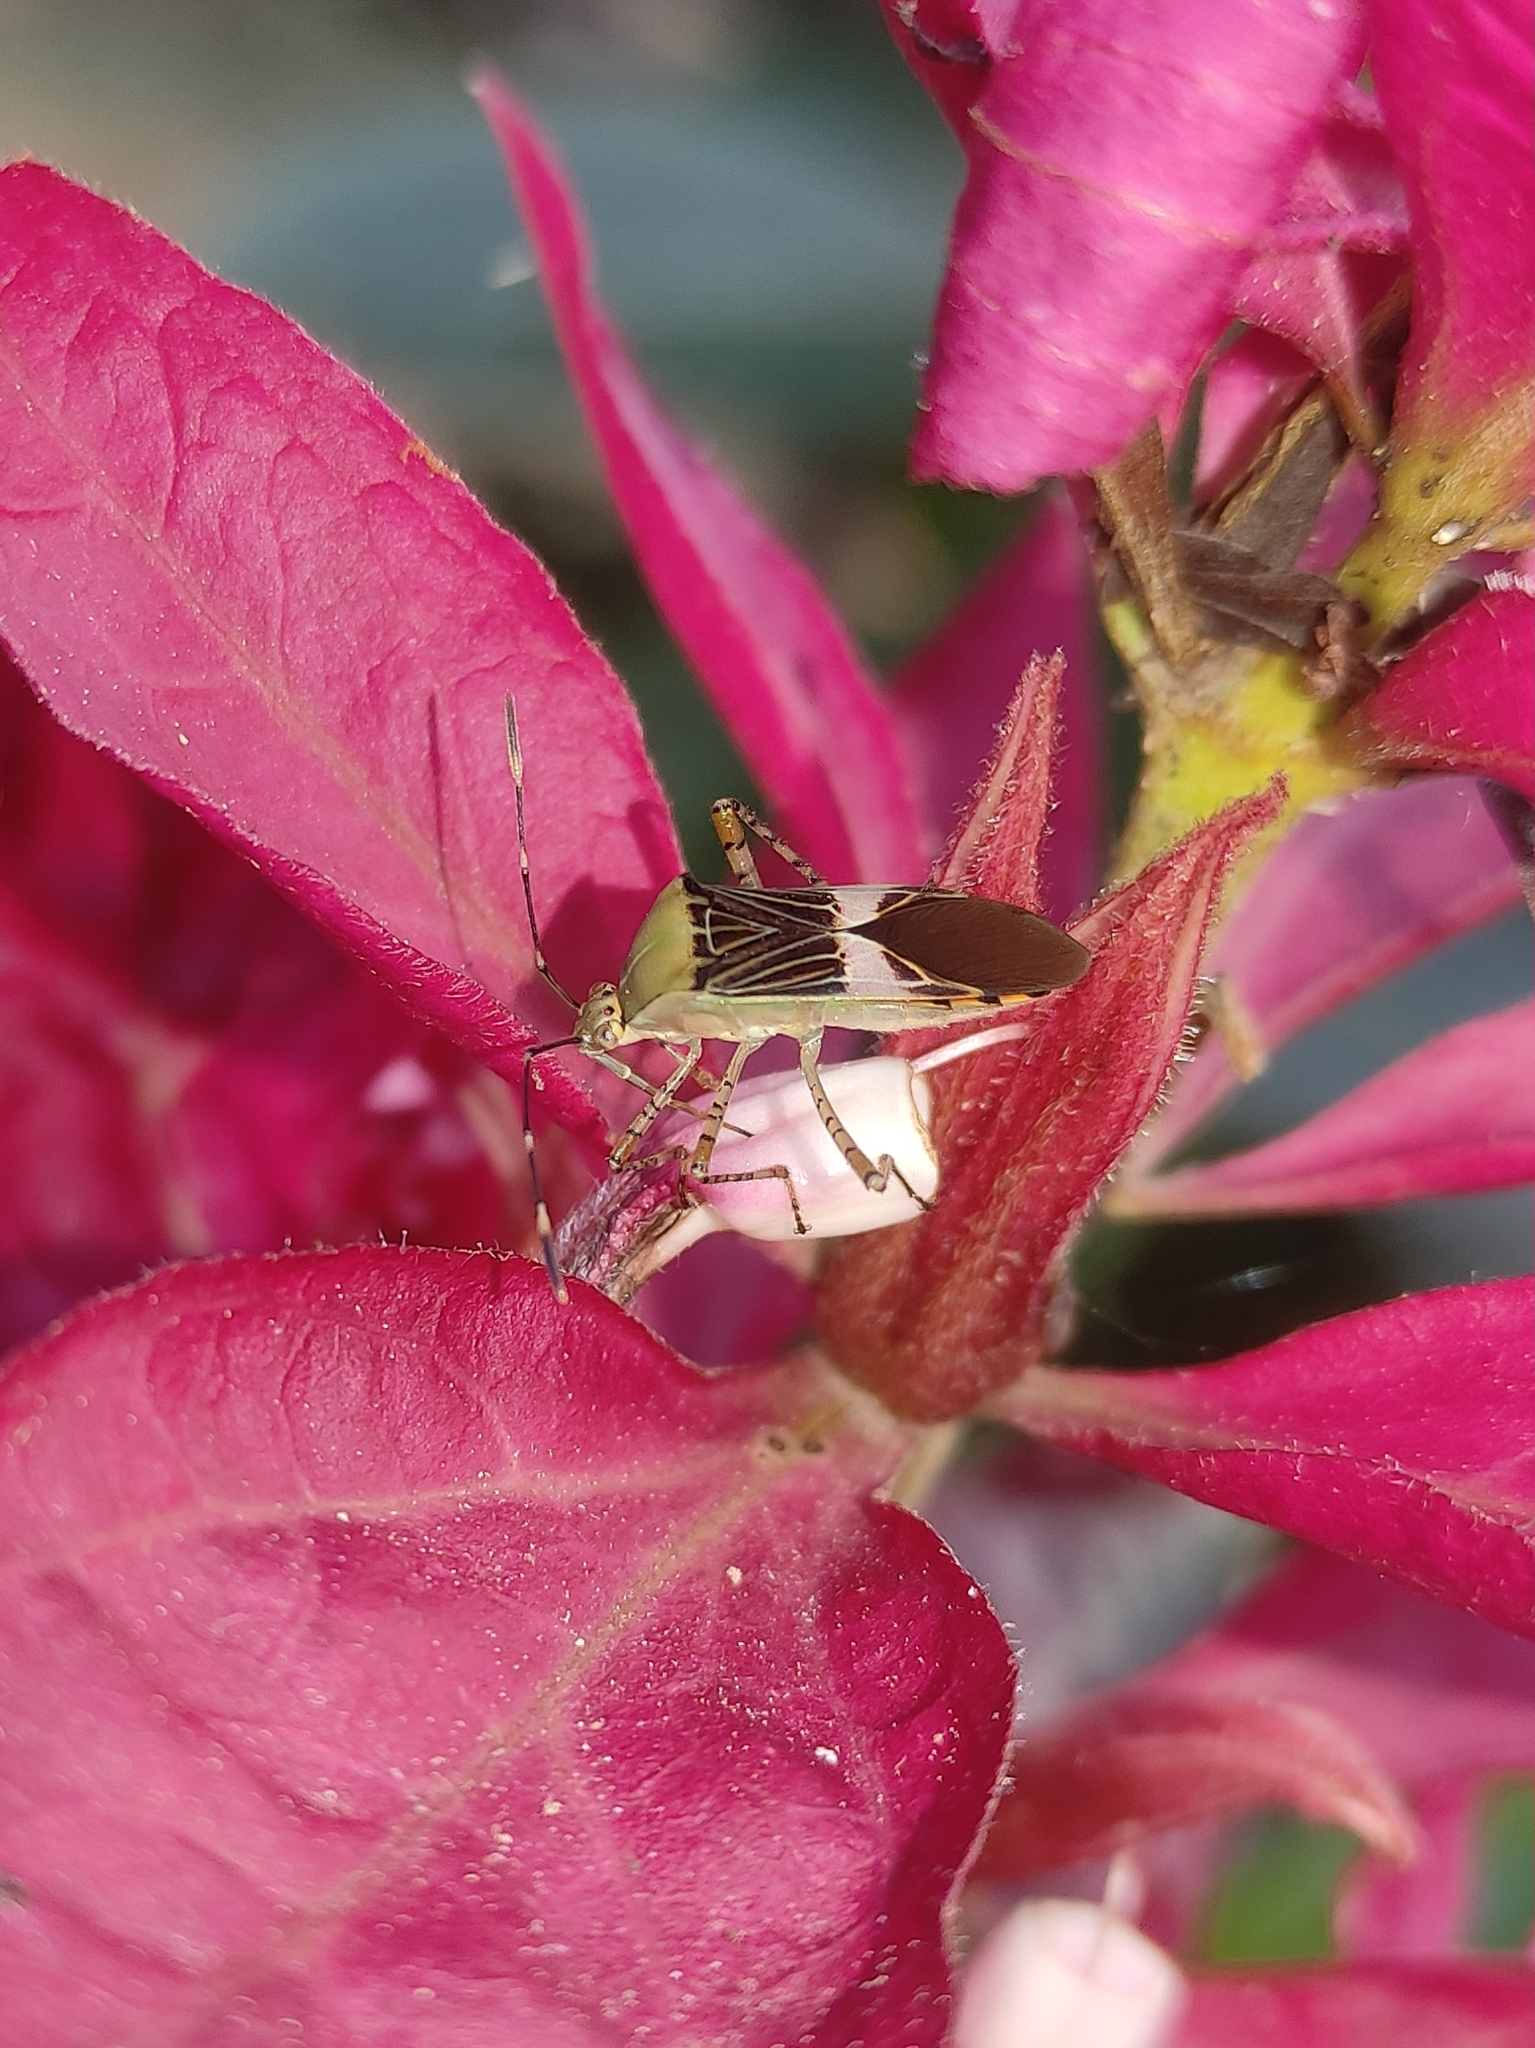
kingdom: Animalia
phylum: Arthropoda
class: Insecta
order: Hemiptera
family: Coreidae
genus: Hypselonotus
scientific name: Hypselonotus fulvus
